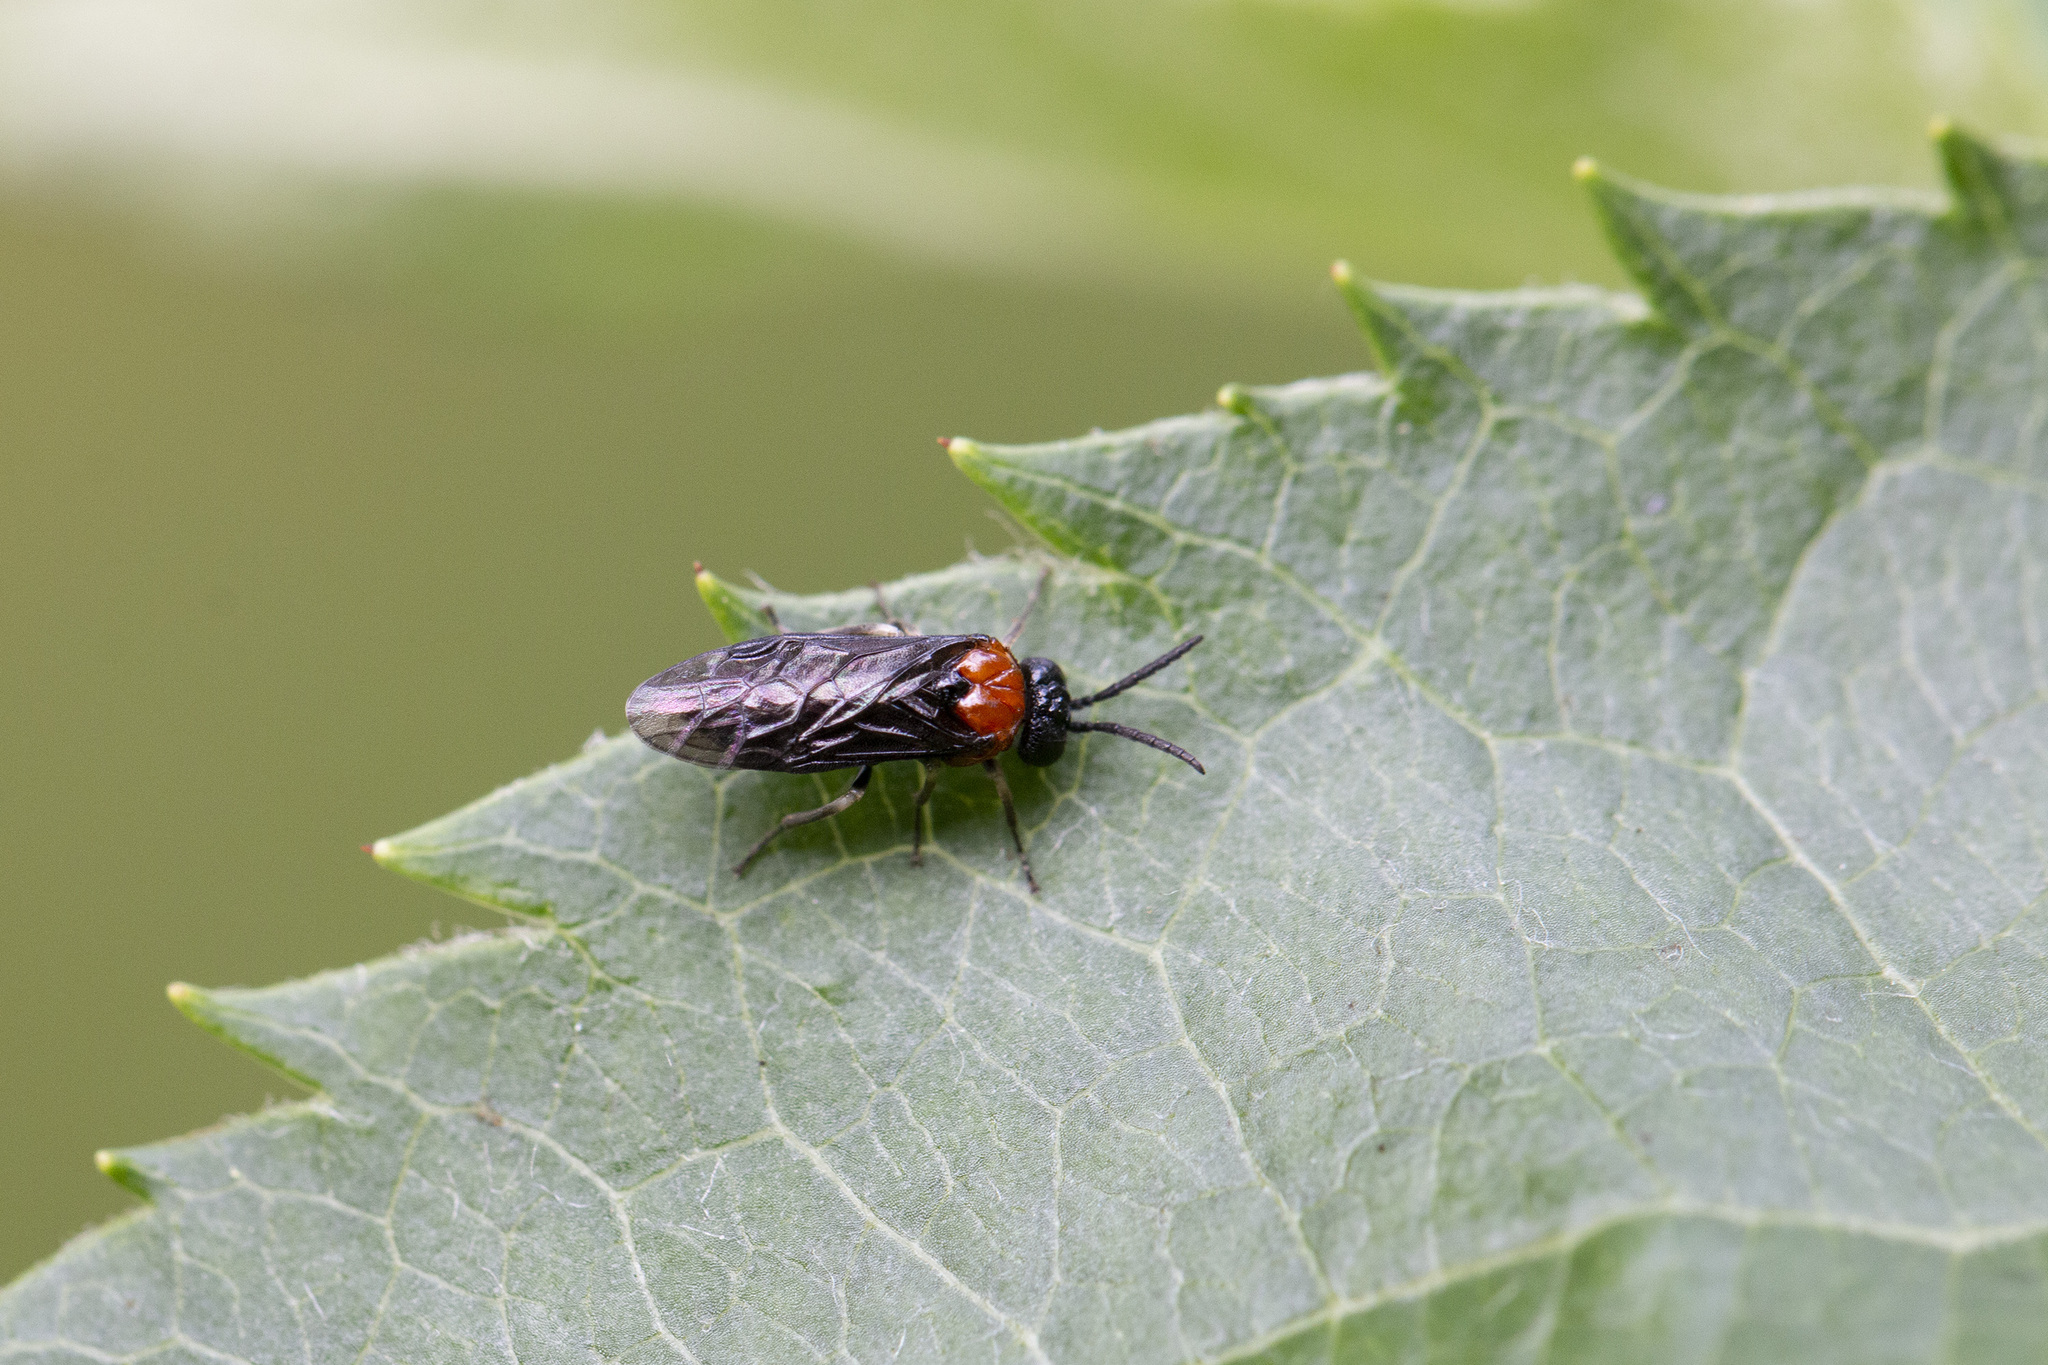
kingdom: Animalia
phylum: Arthropoda
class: Insecta
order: Hymenoptera
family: Tenthredinidae
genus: Eutomostethus
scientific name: Eutomostethus ephippium
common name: Tenthredid wasp
